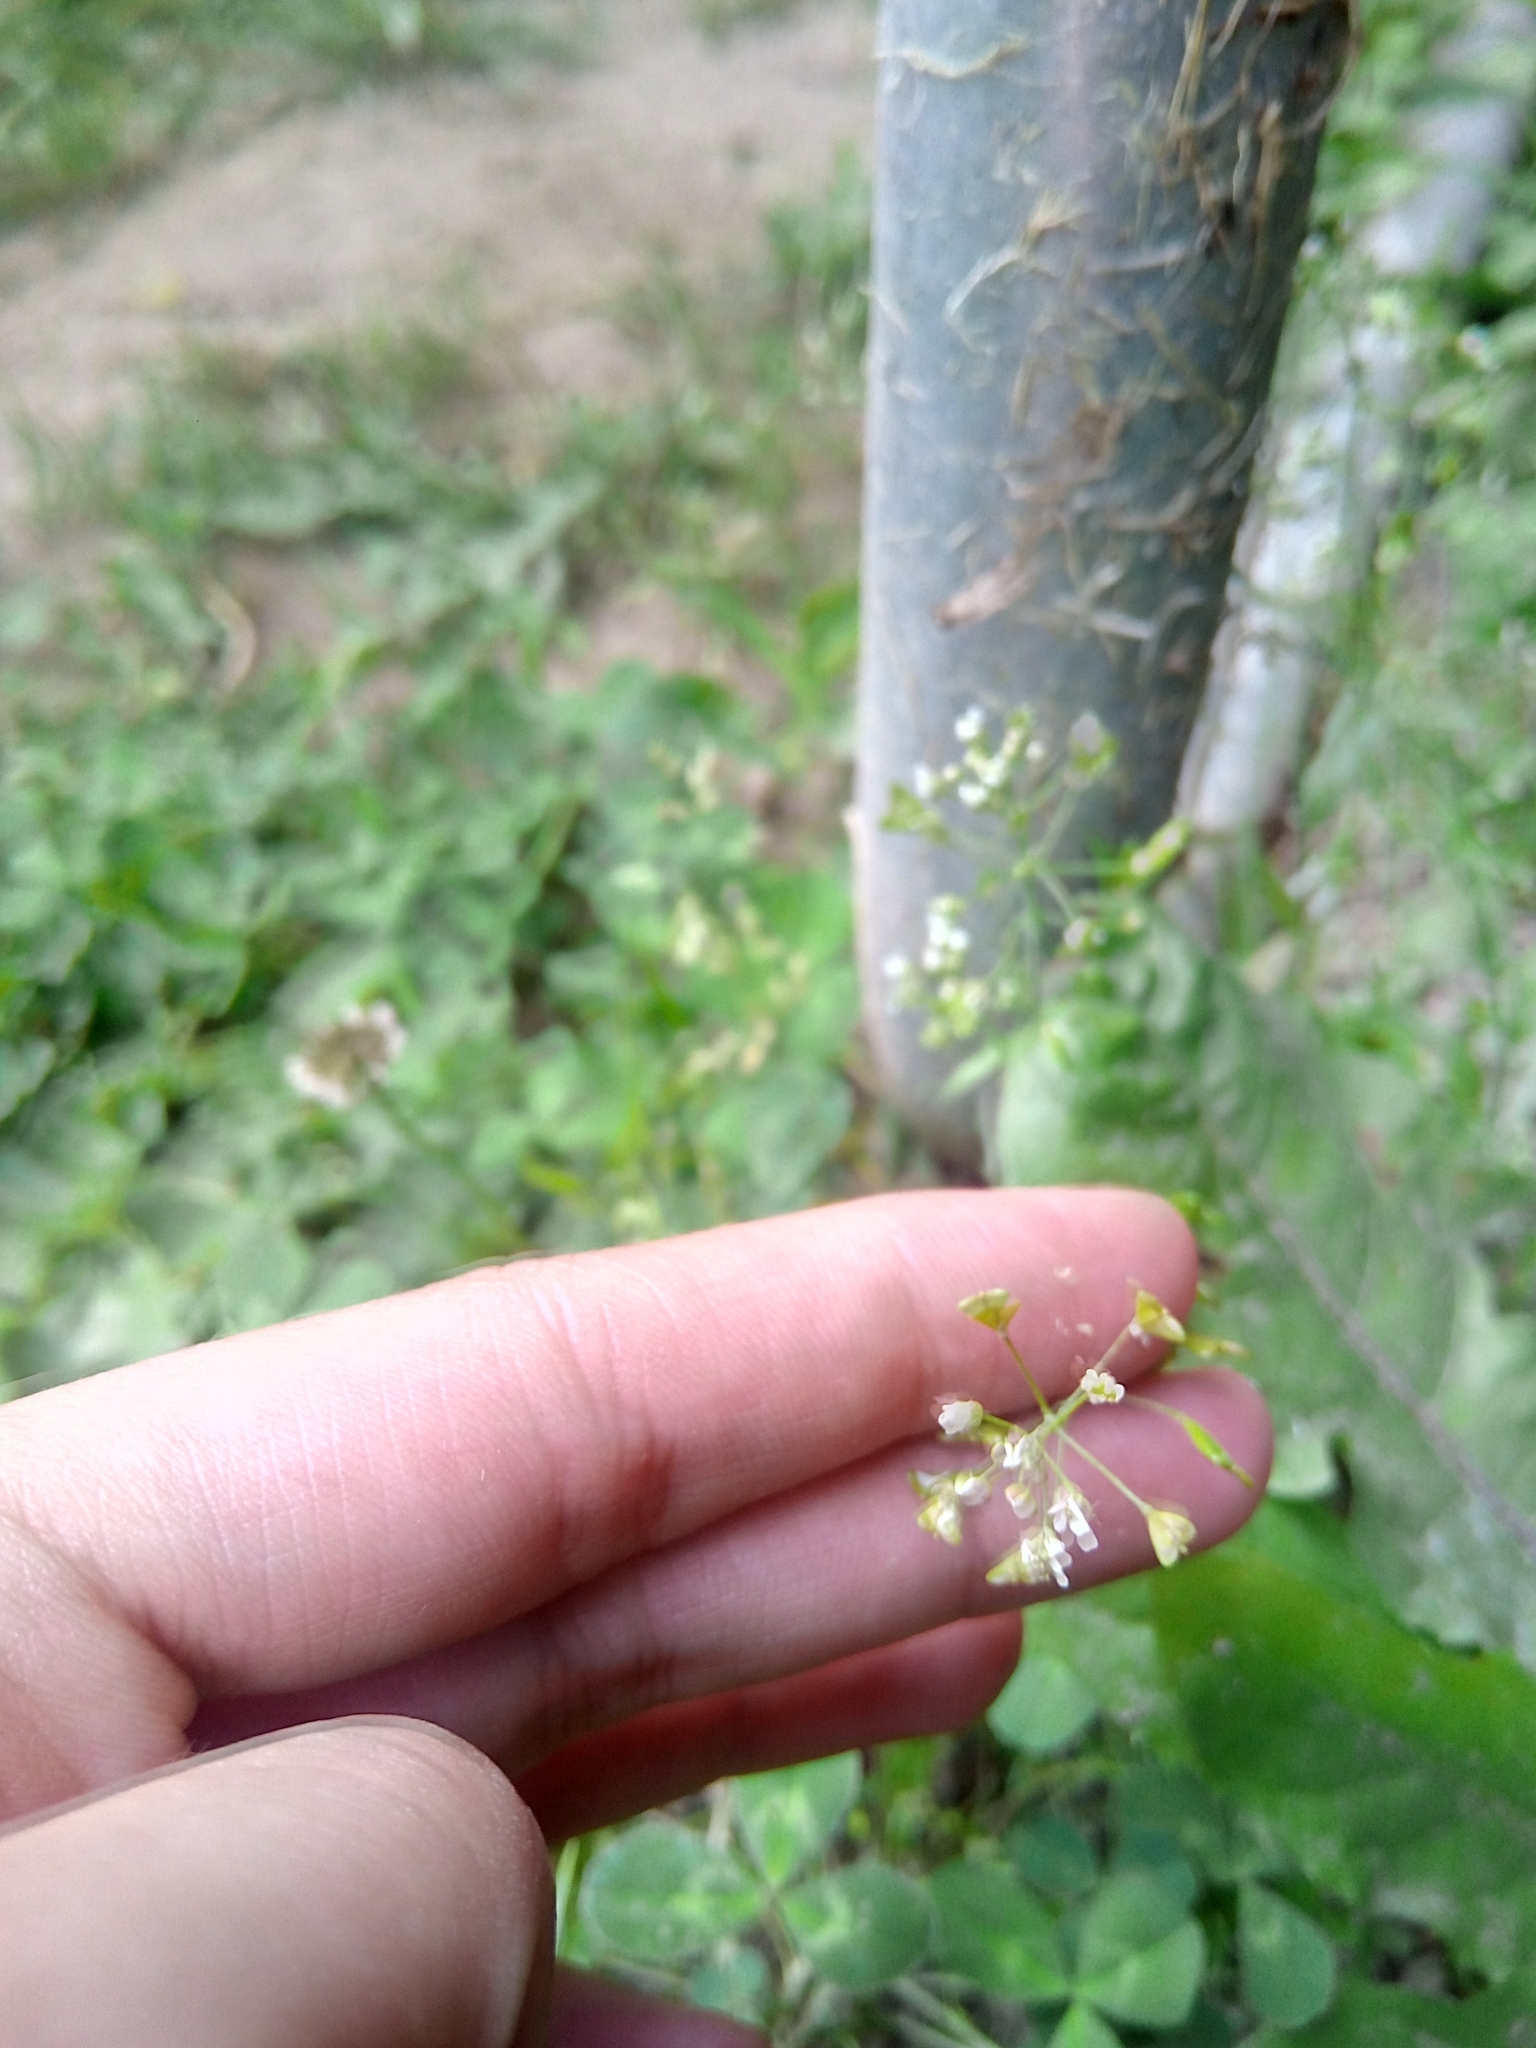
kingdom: Plantae
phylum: Tracheophyta
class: Magnoliopsida
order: Brassicales
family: Brassicaceae
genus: Capsella
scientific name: Capsella bursa-pastoris
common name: Shepherd's purse
